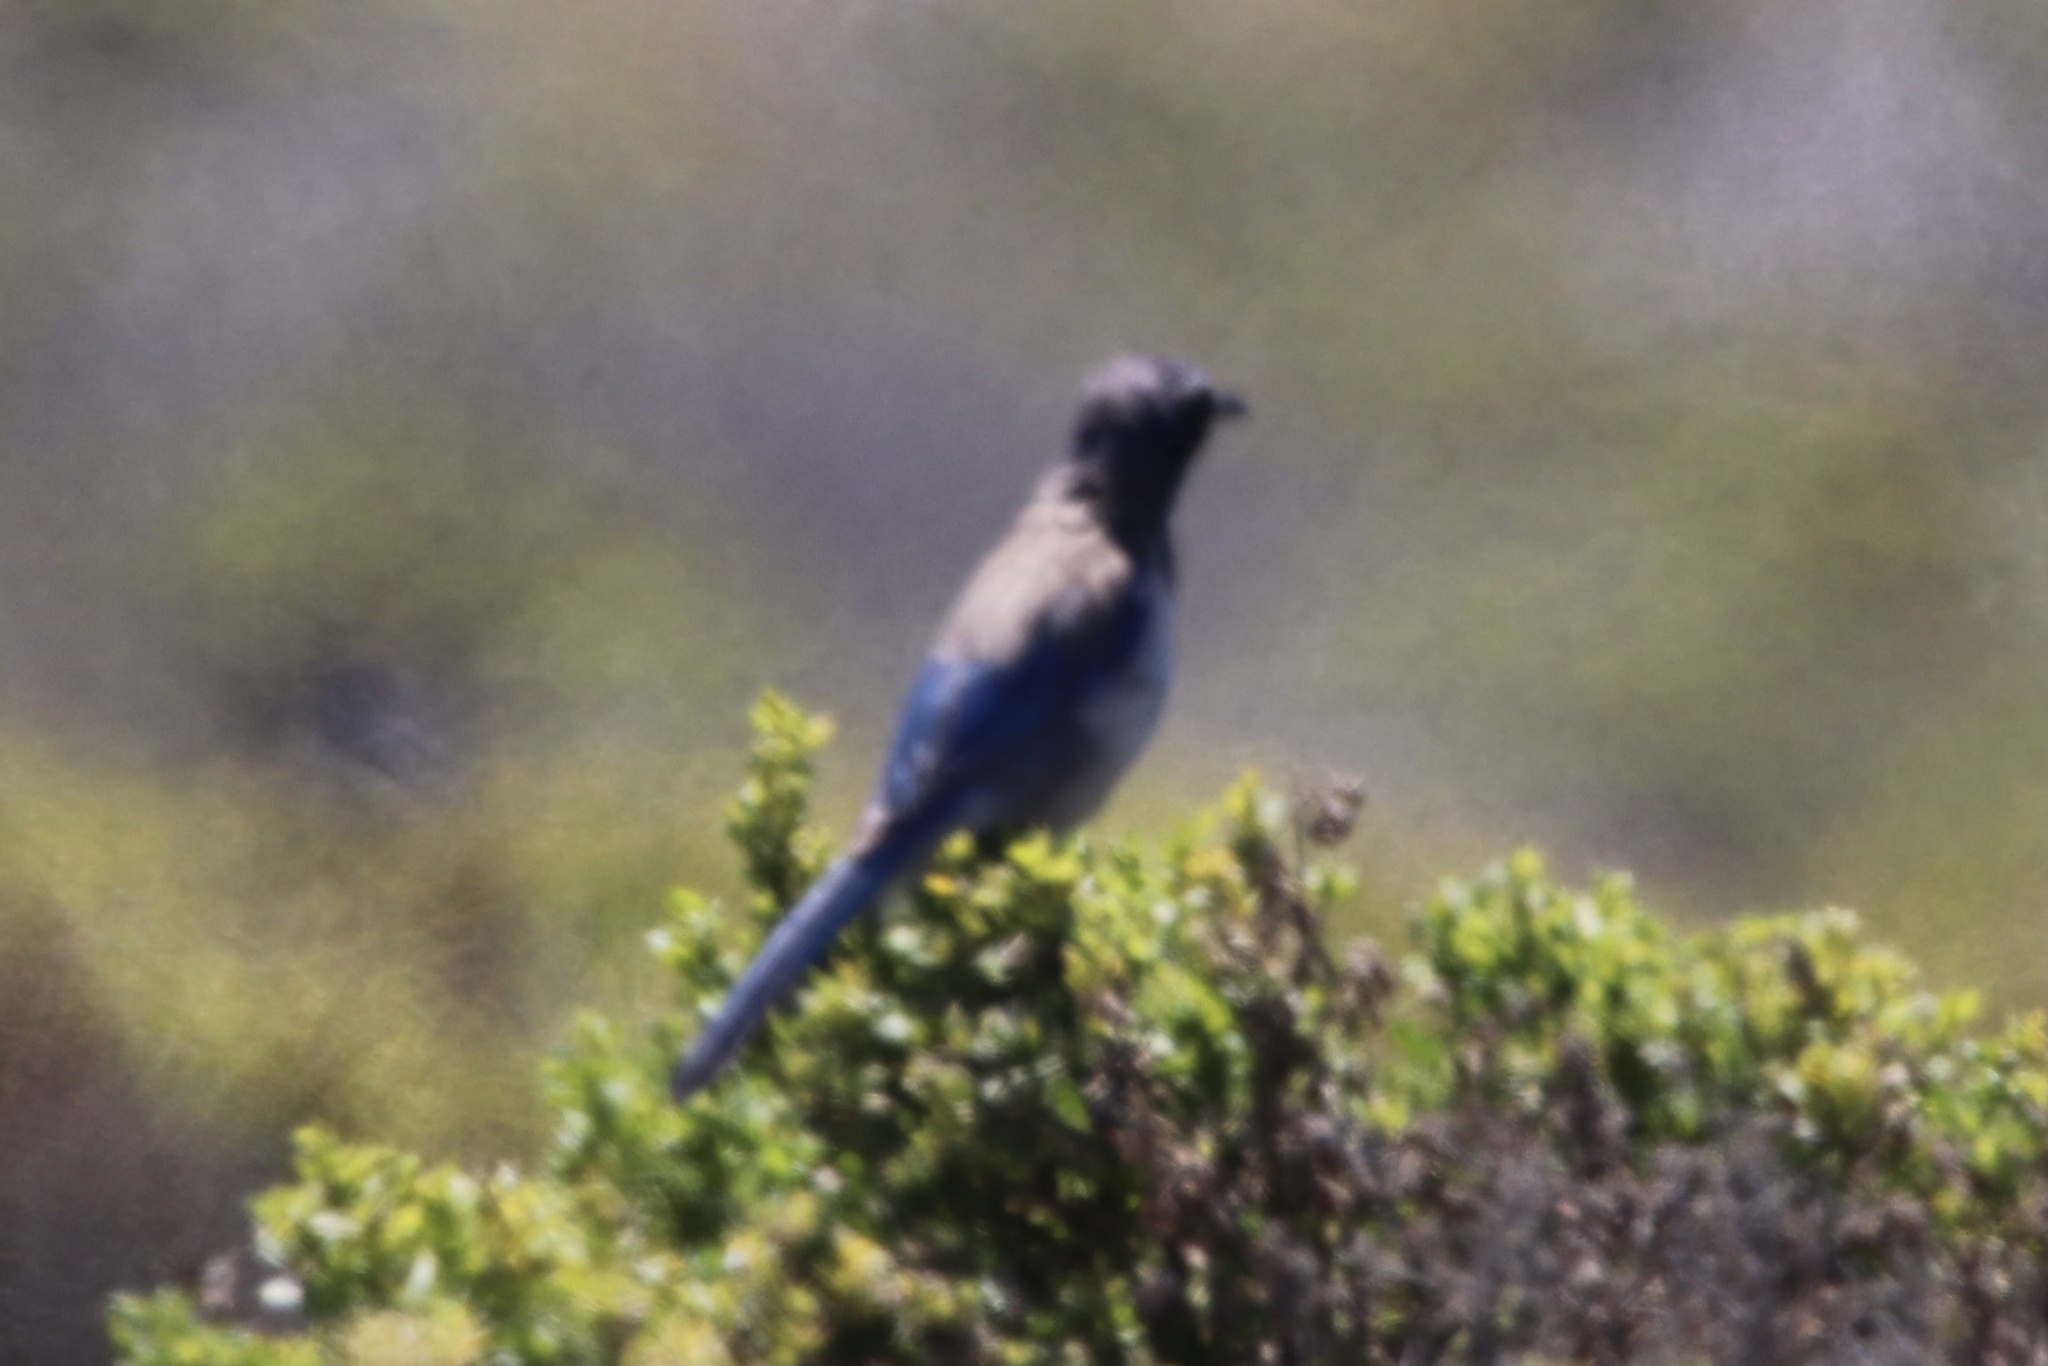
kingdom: Animalia
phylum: Chordata
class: Aves
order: Passeriformes
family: Corvidae
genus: Aphelocoma
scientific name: Aphelocoma californica
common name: California scrub-jay
